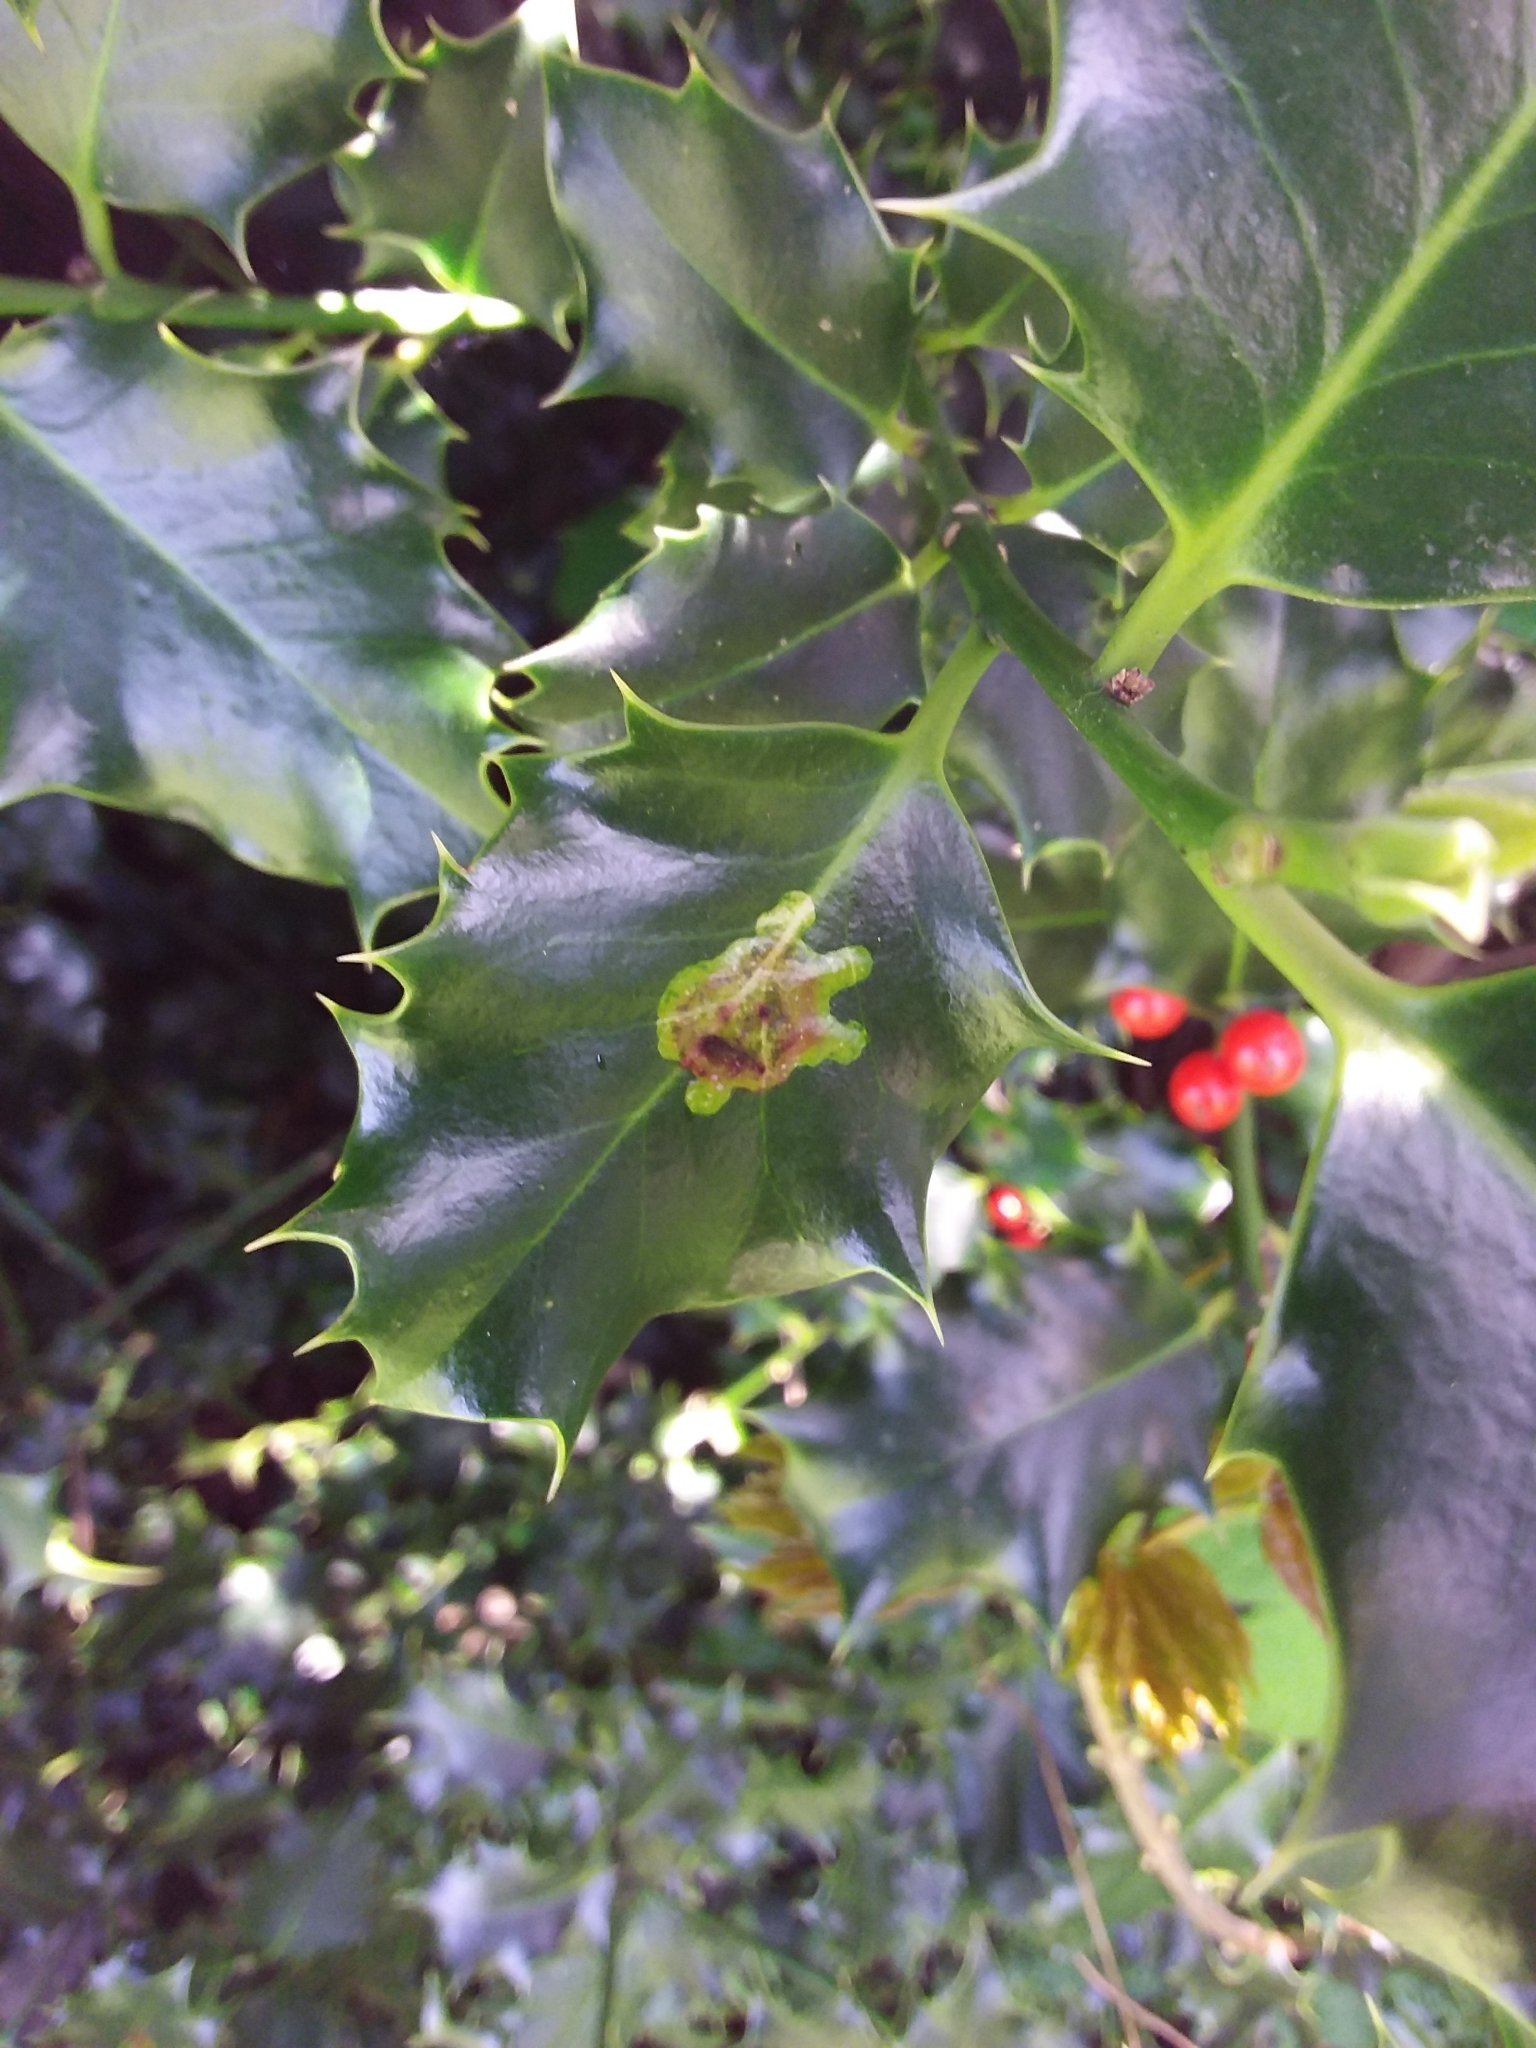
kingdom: Animalia
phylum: Arthropoda
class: Insecta
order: Diptera
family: Agromyzidae
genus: Phytomyza
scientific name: Phytomyza ilicis
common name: Holly leafminer
